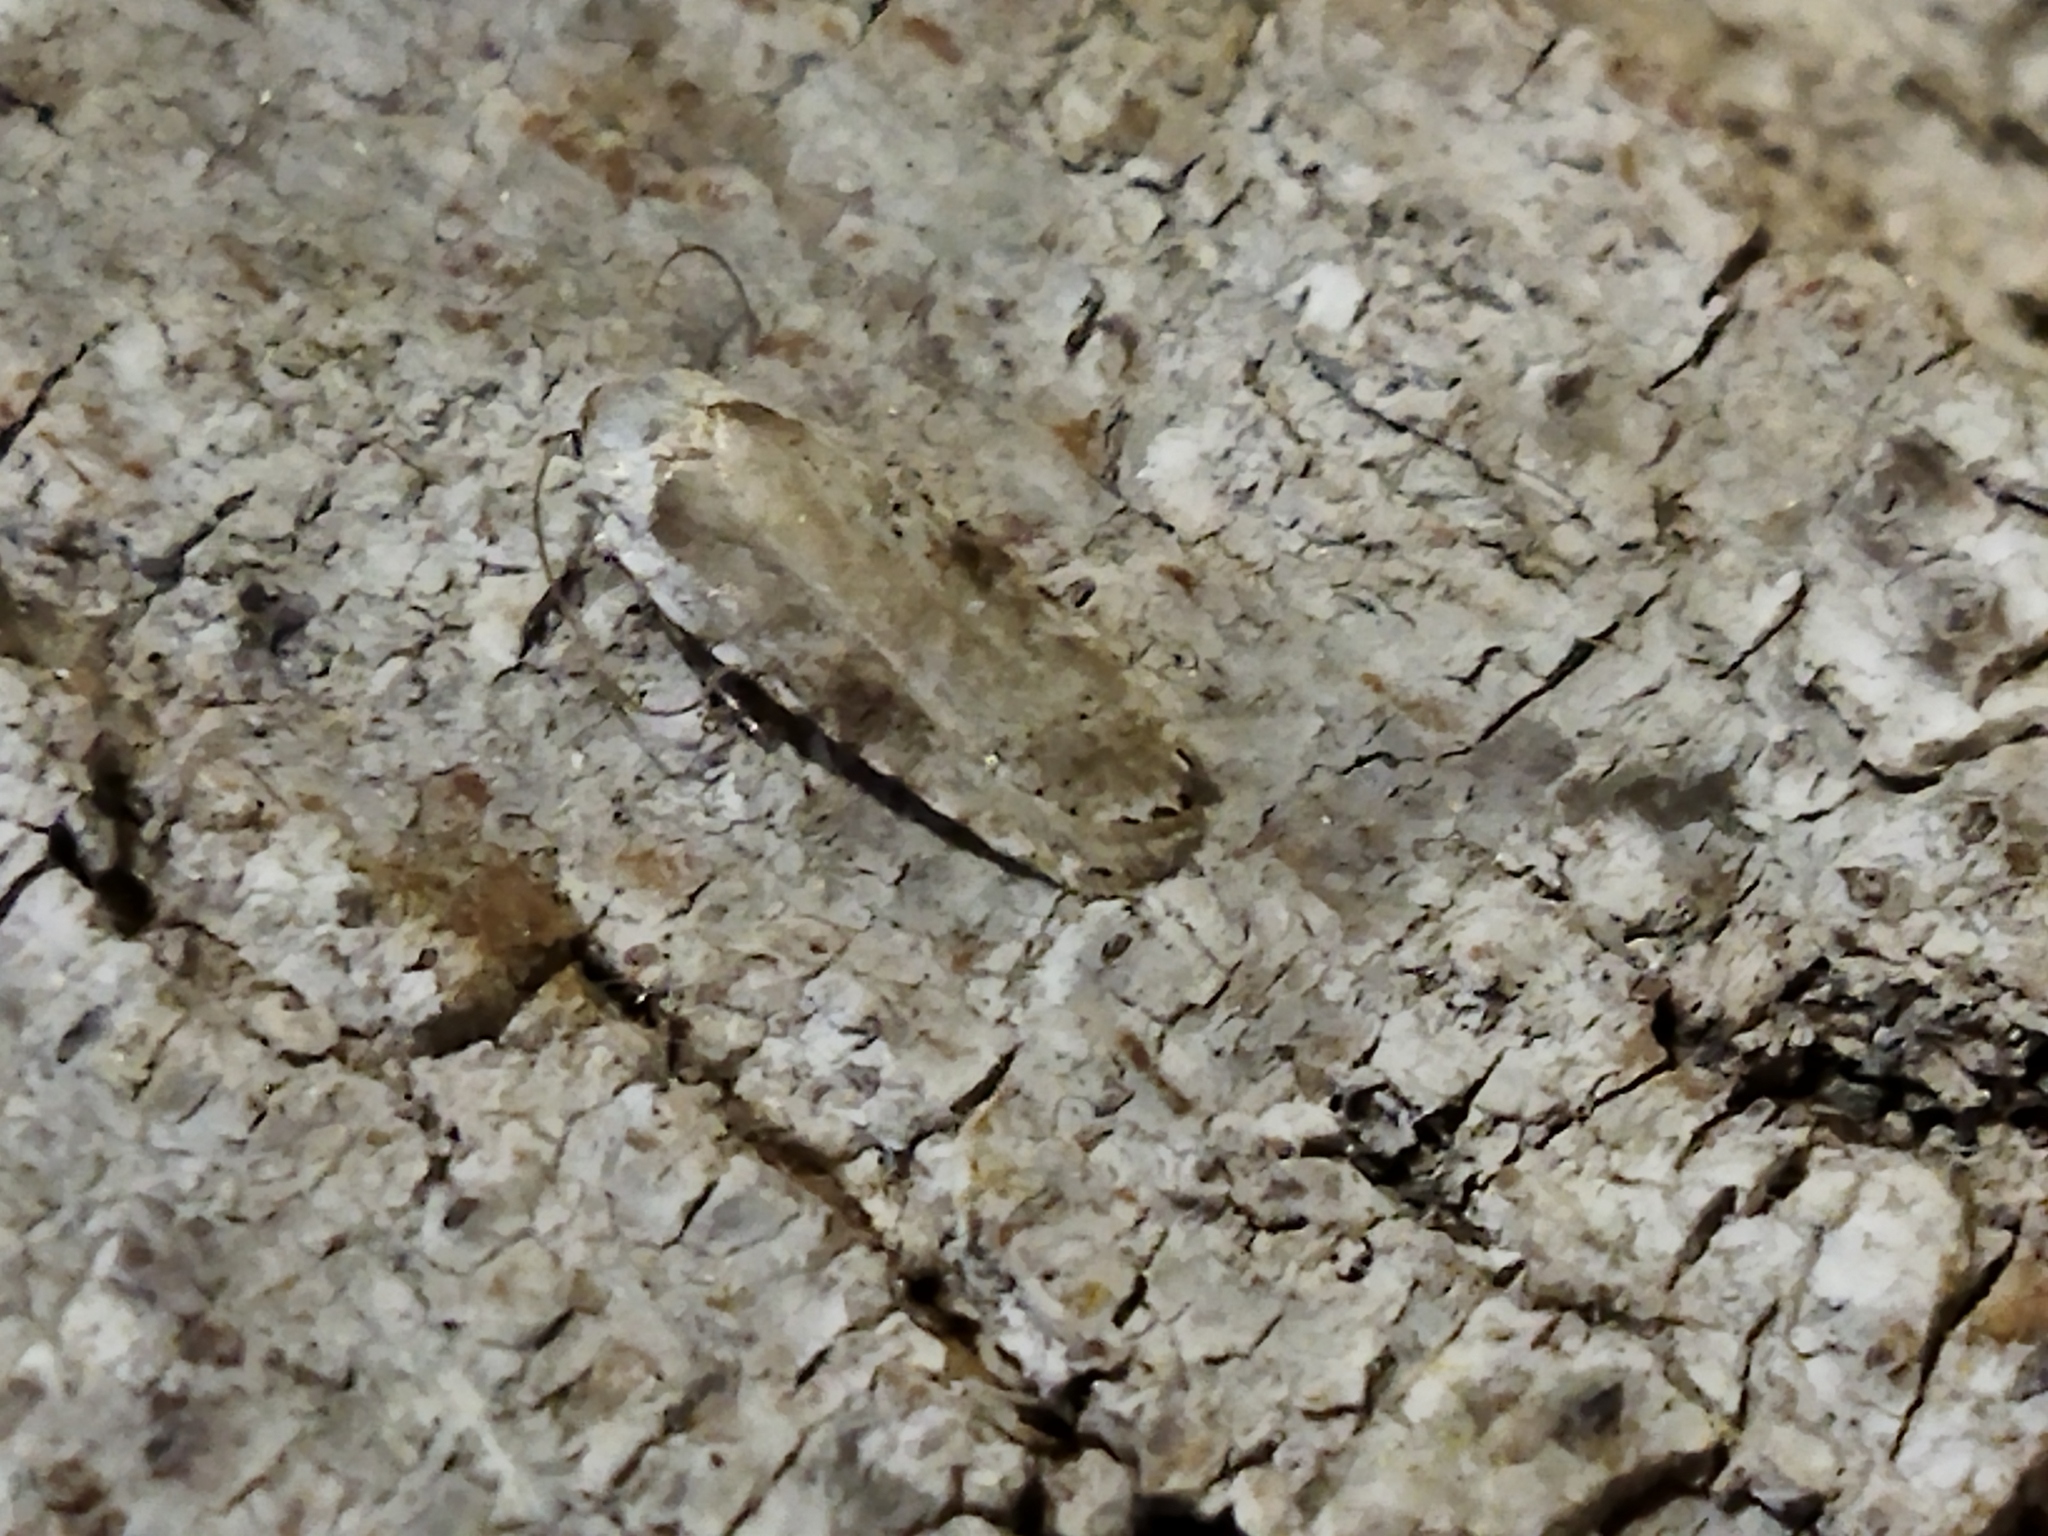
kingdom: Animalia
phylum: Arthropoda
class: Insecta
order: Lepidoptera
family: Depressariidae
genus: Agonopterix
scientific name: Agonopterix alstroemeriana
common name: Moth
